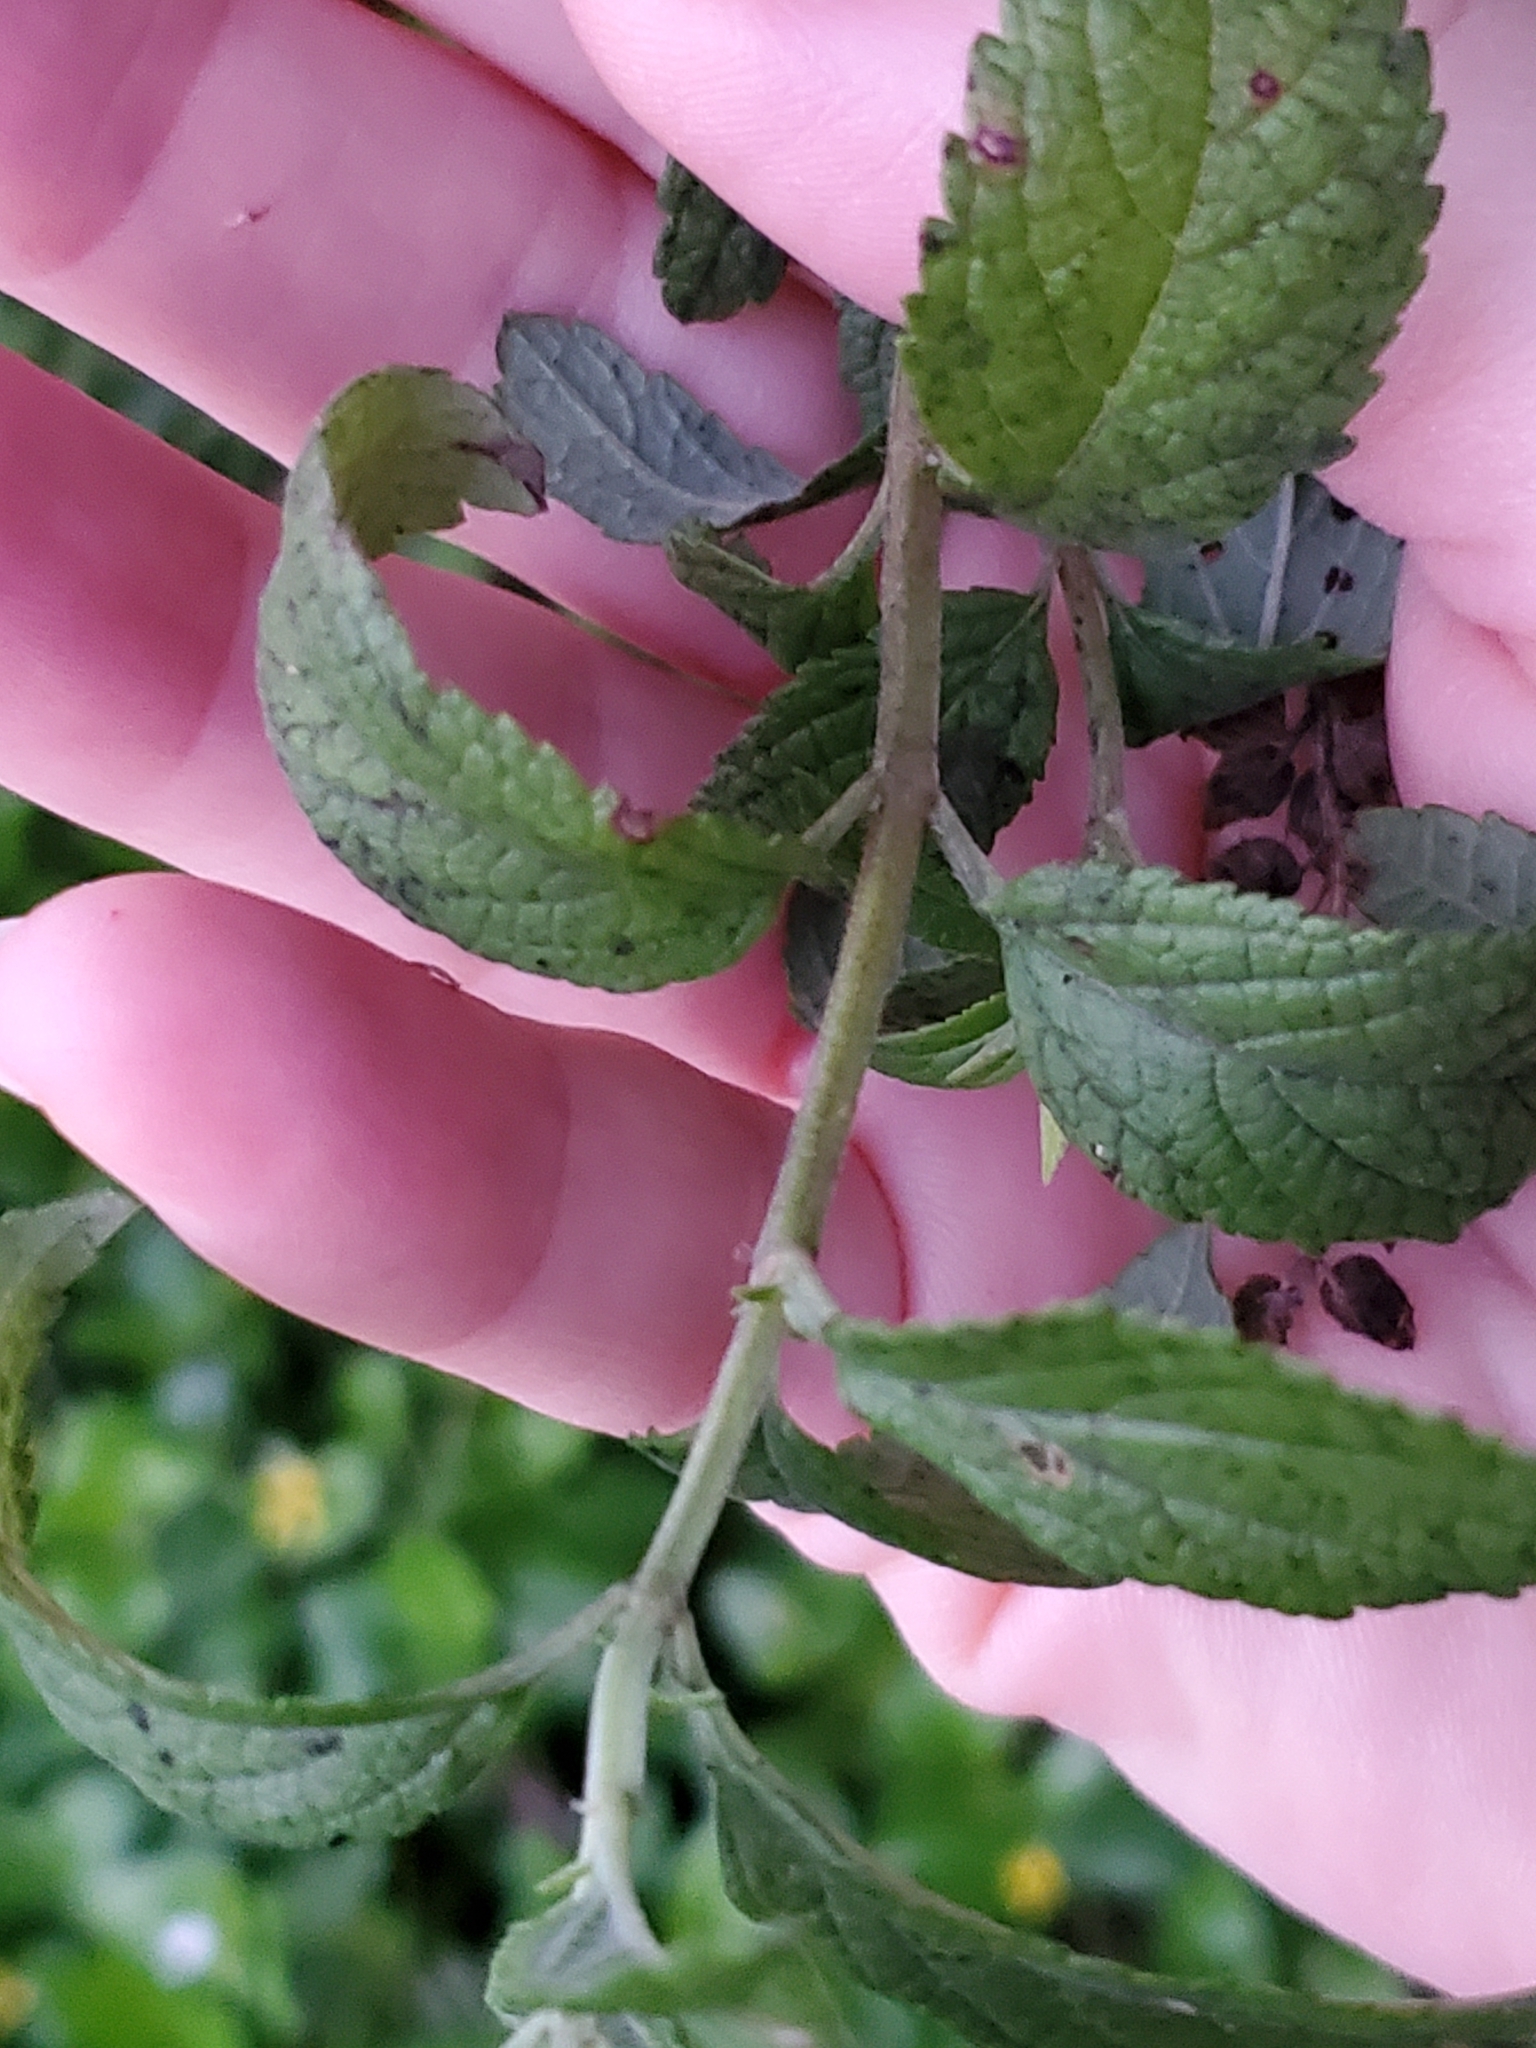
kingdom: Plantae
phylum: Tracheophyta
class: Magnoliopsida
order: Lamiales
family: Lamiaceae
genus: Teucrium
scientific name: Teucrium canadense
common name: American germander
